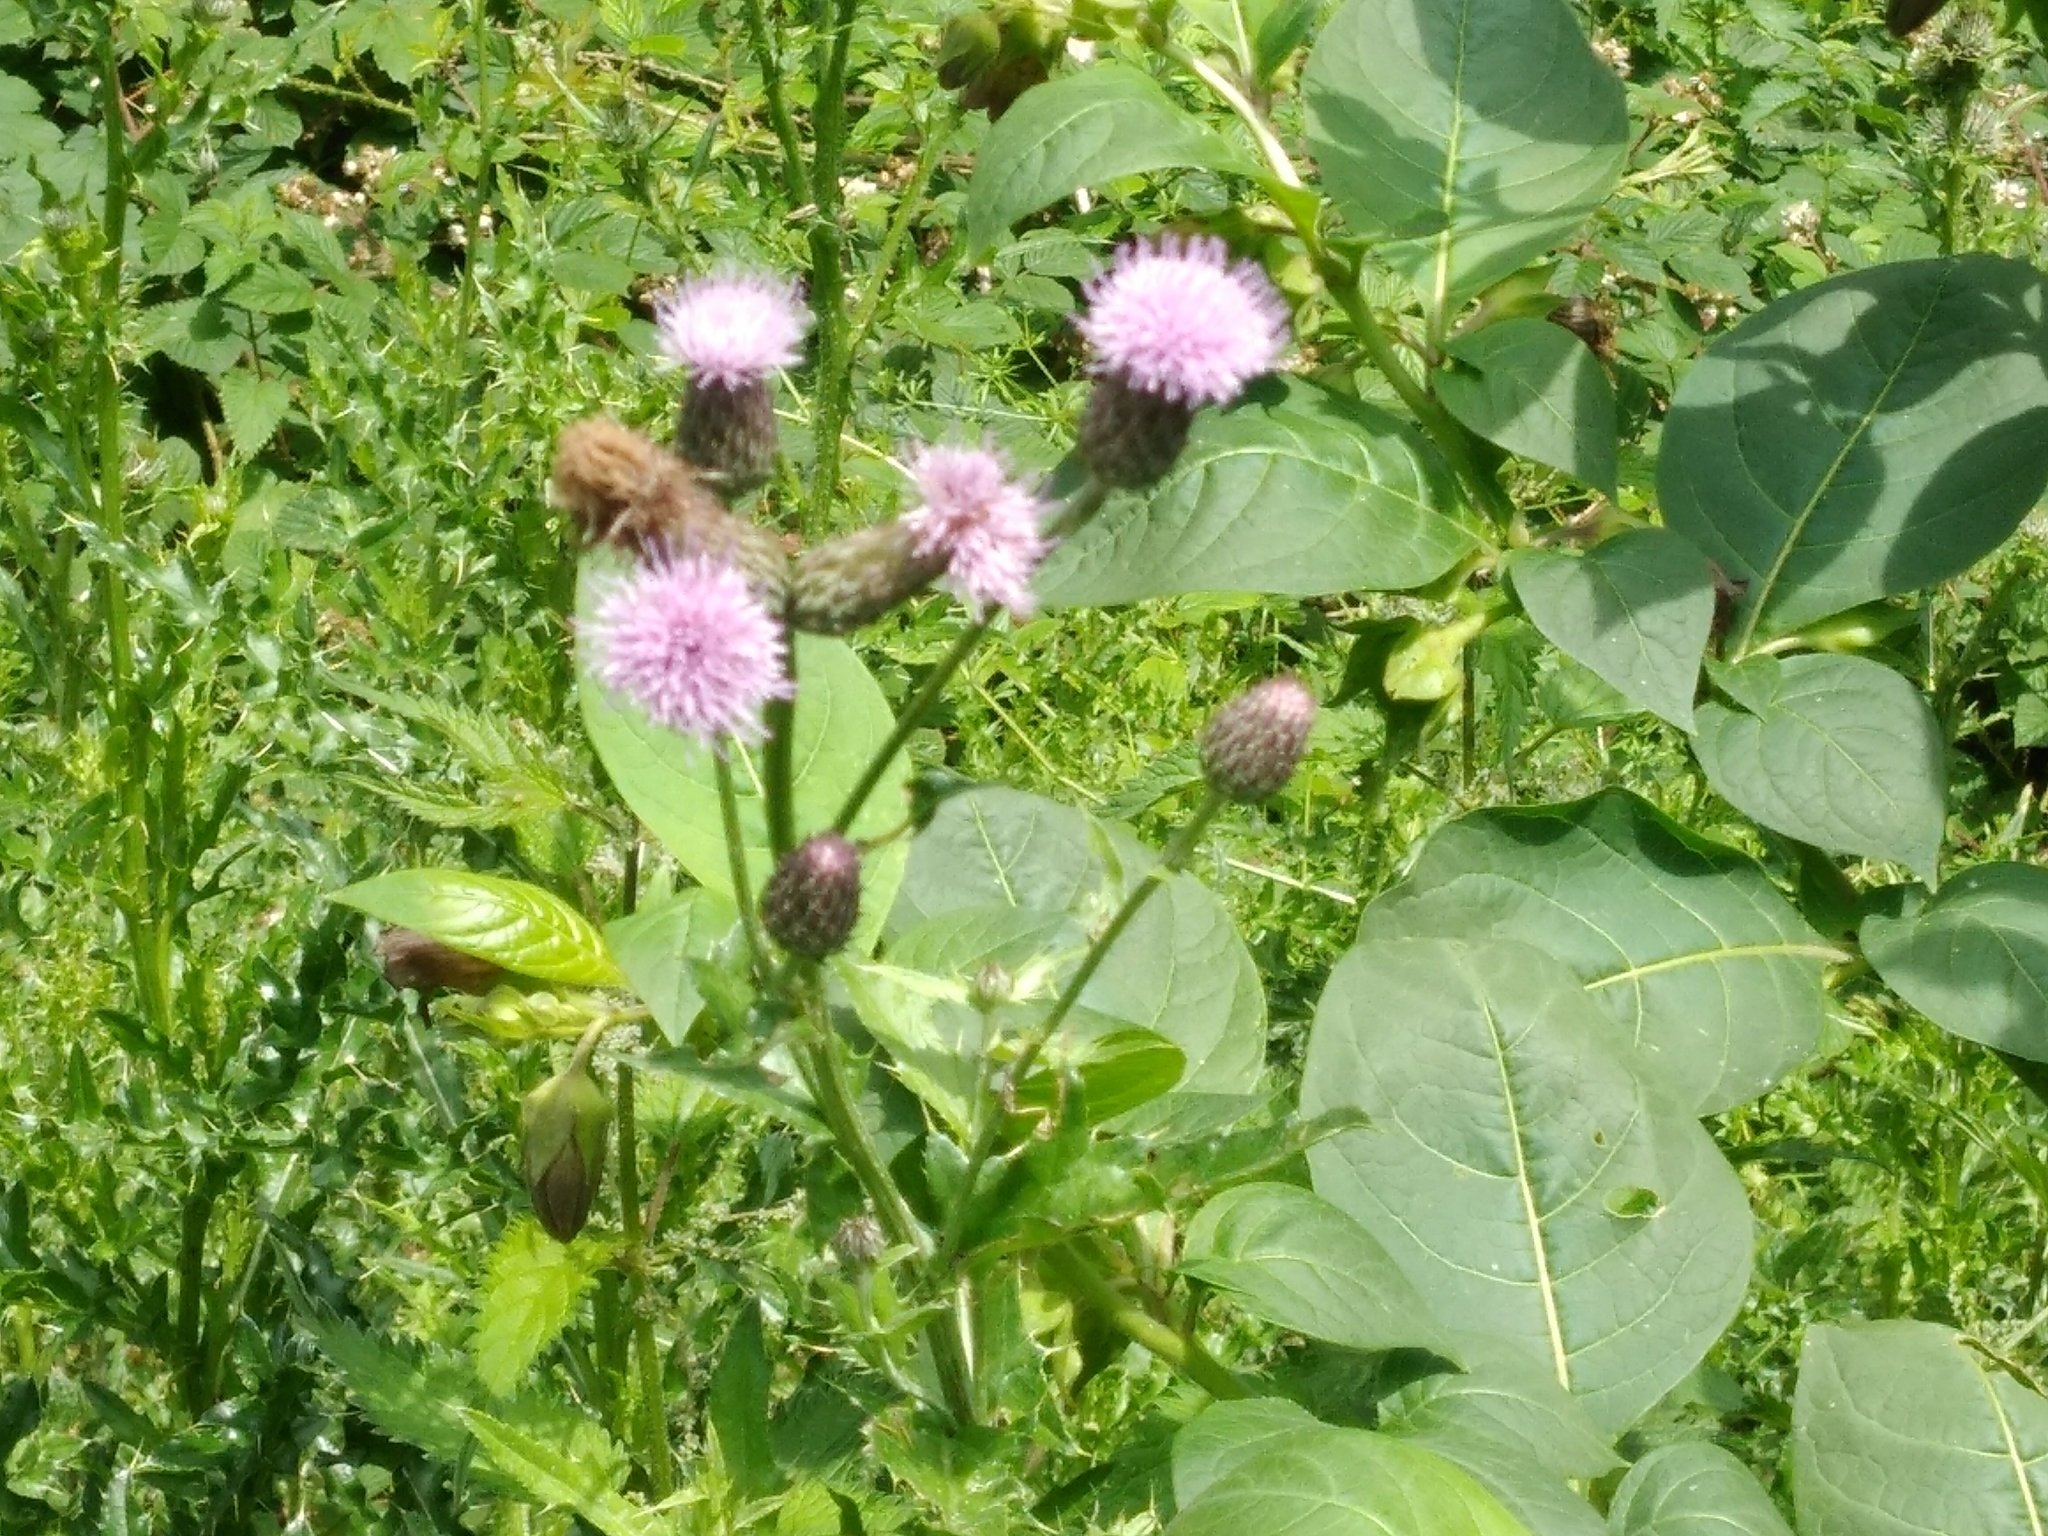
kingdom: Plantae
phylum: Tracheophyta
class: Magnoliopsida
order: Asterales
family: Asteraceae
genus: Cirsium
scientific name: Cirsium arvense
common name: Creeping thistle
